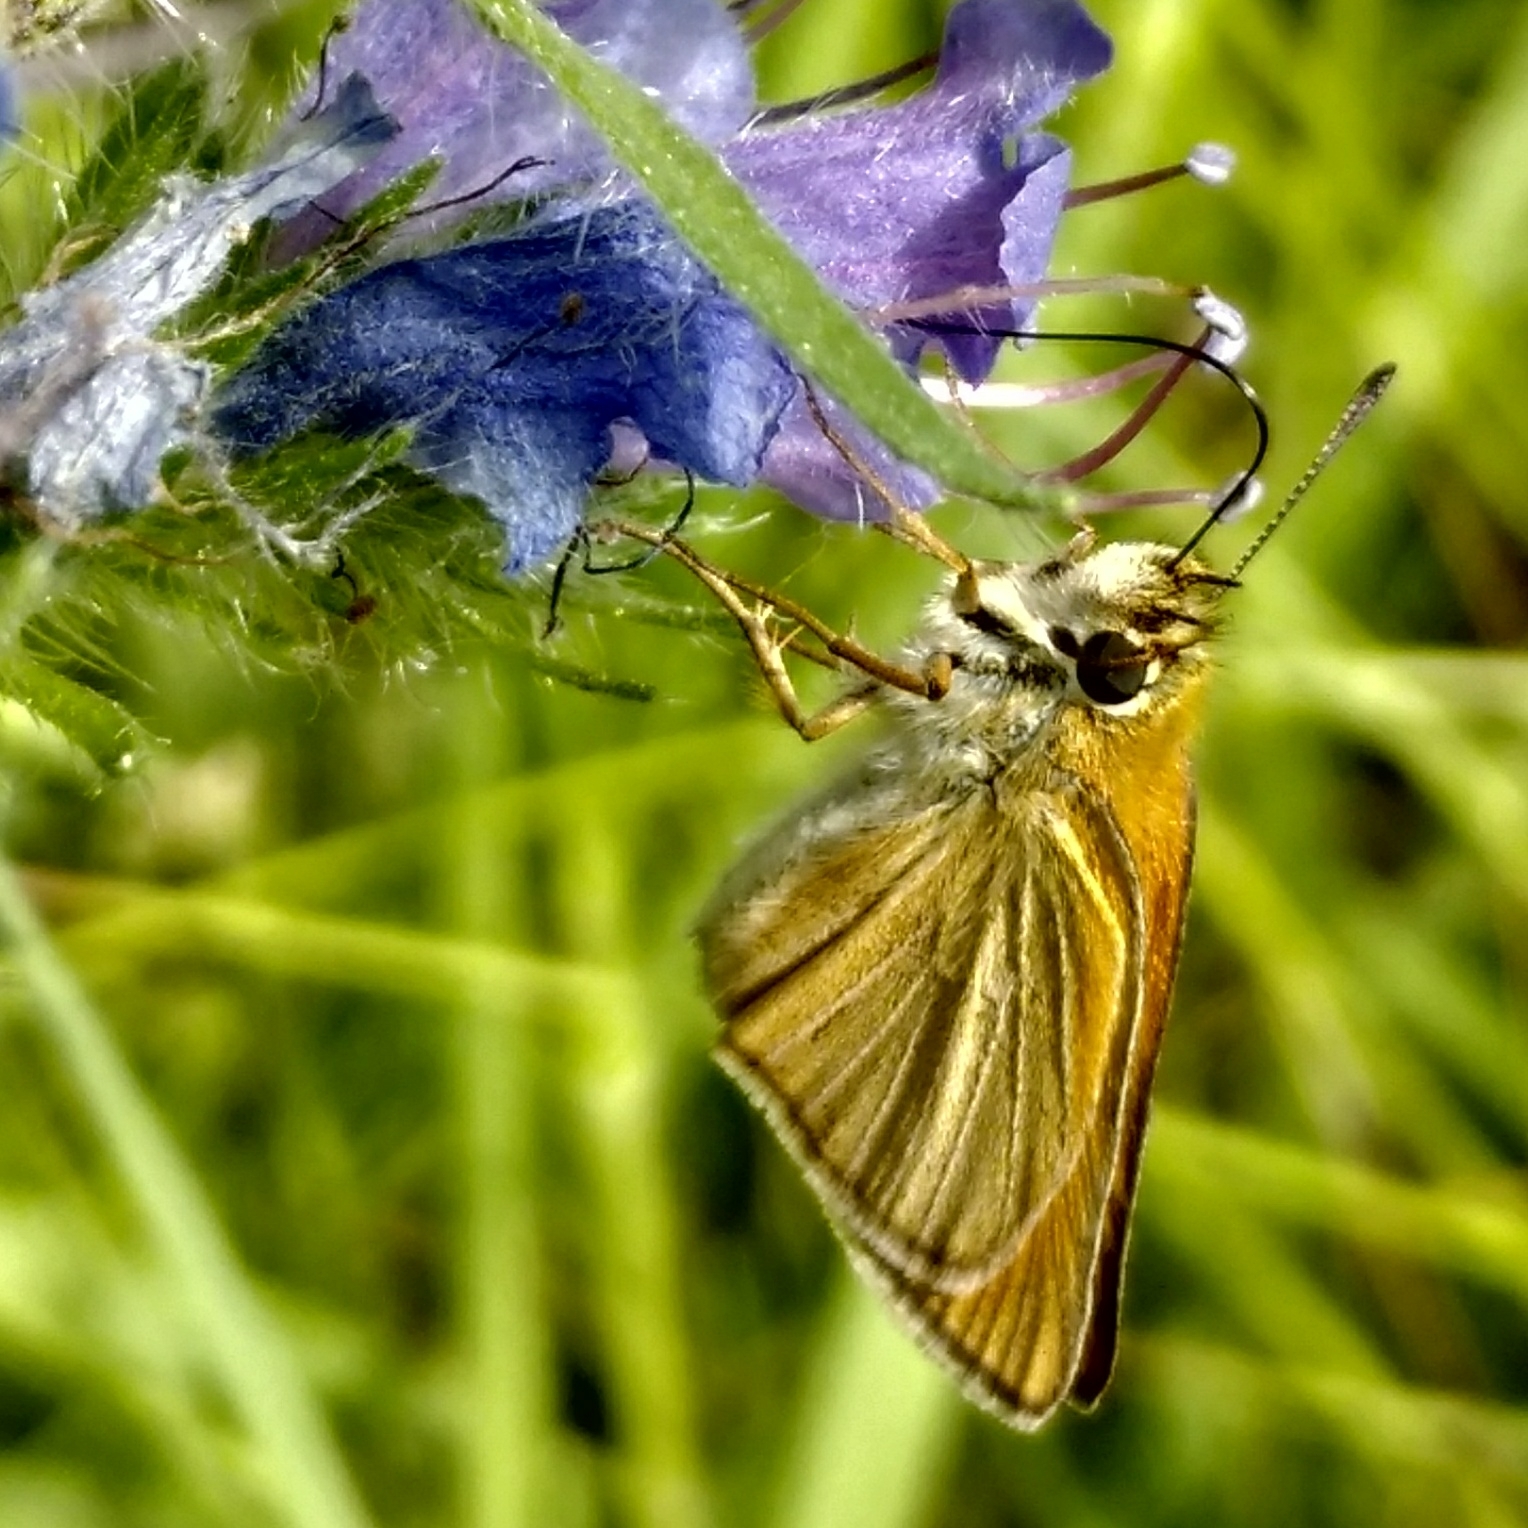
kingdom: Animalia
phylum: Arthropoda
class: Insecta
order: Lepidoptera
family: Hesperiidae
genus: Thymelicus
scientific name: Thymelicus lineola
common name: Essex skipper
